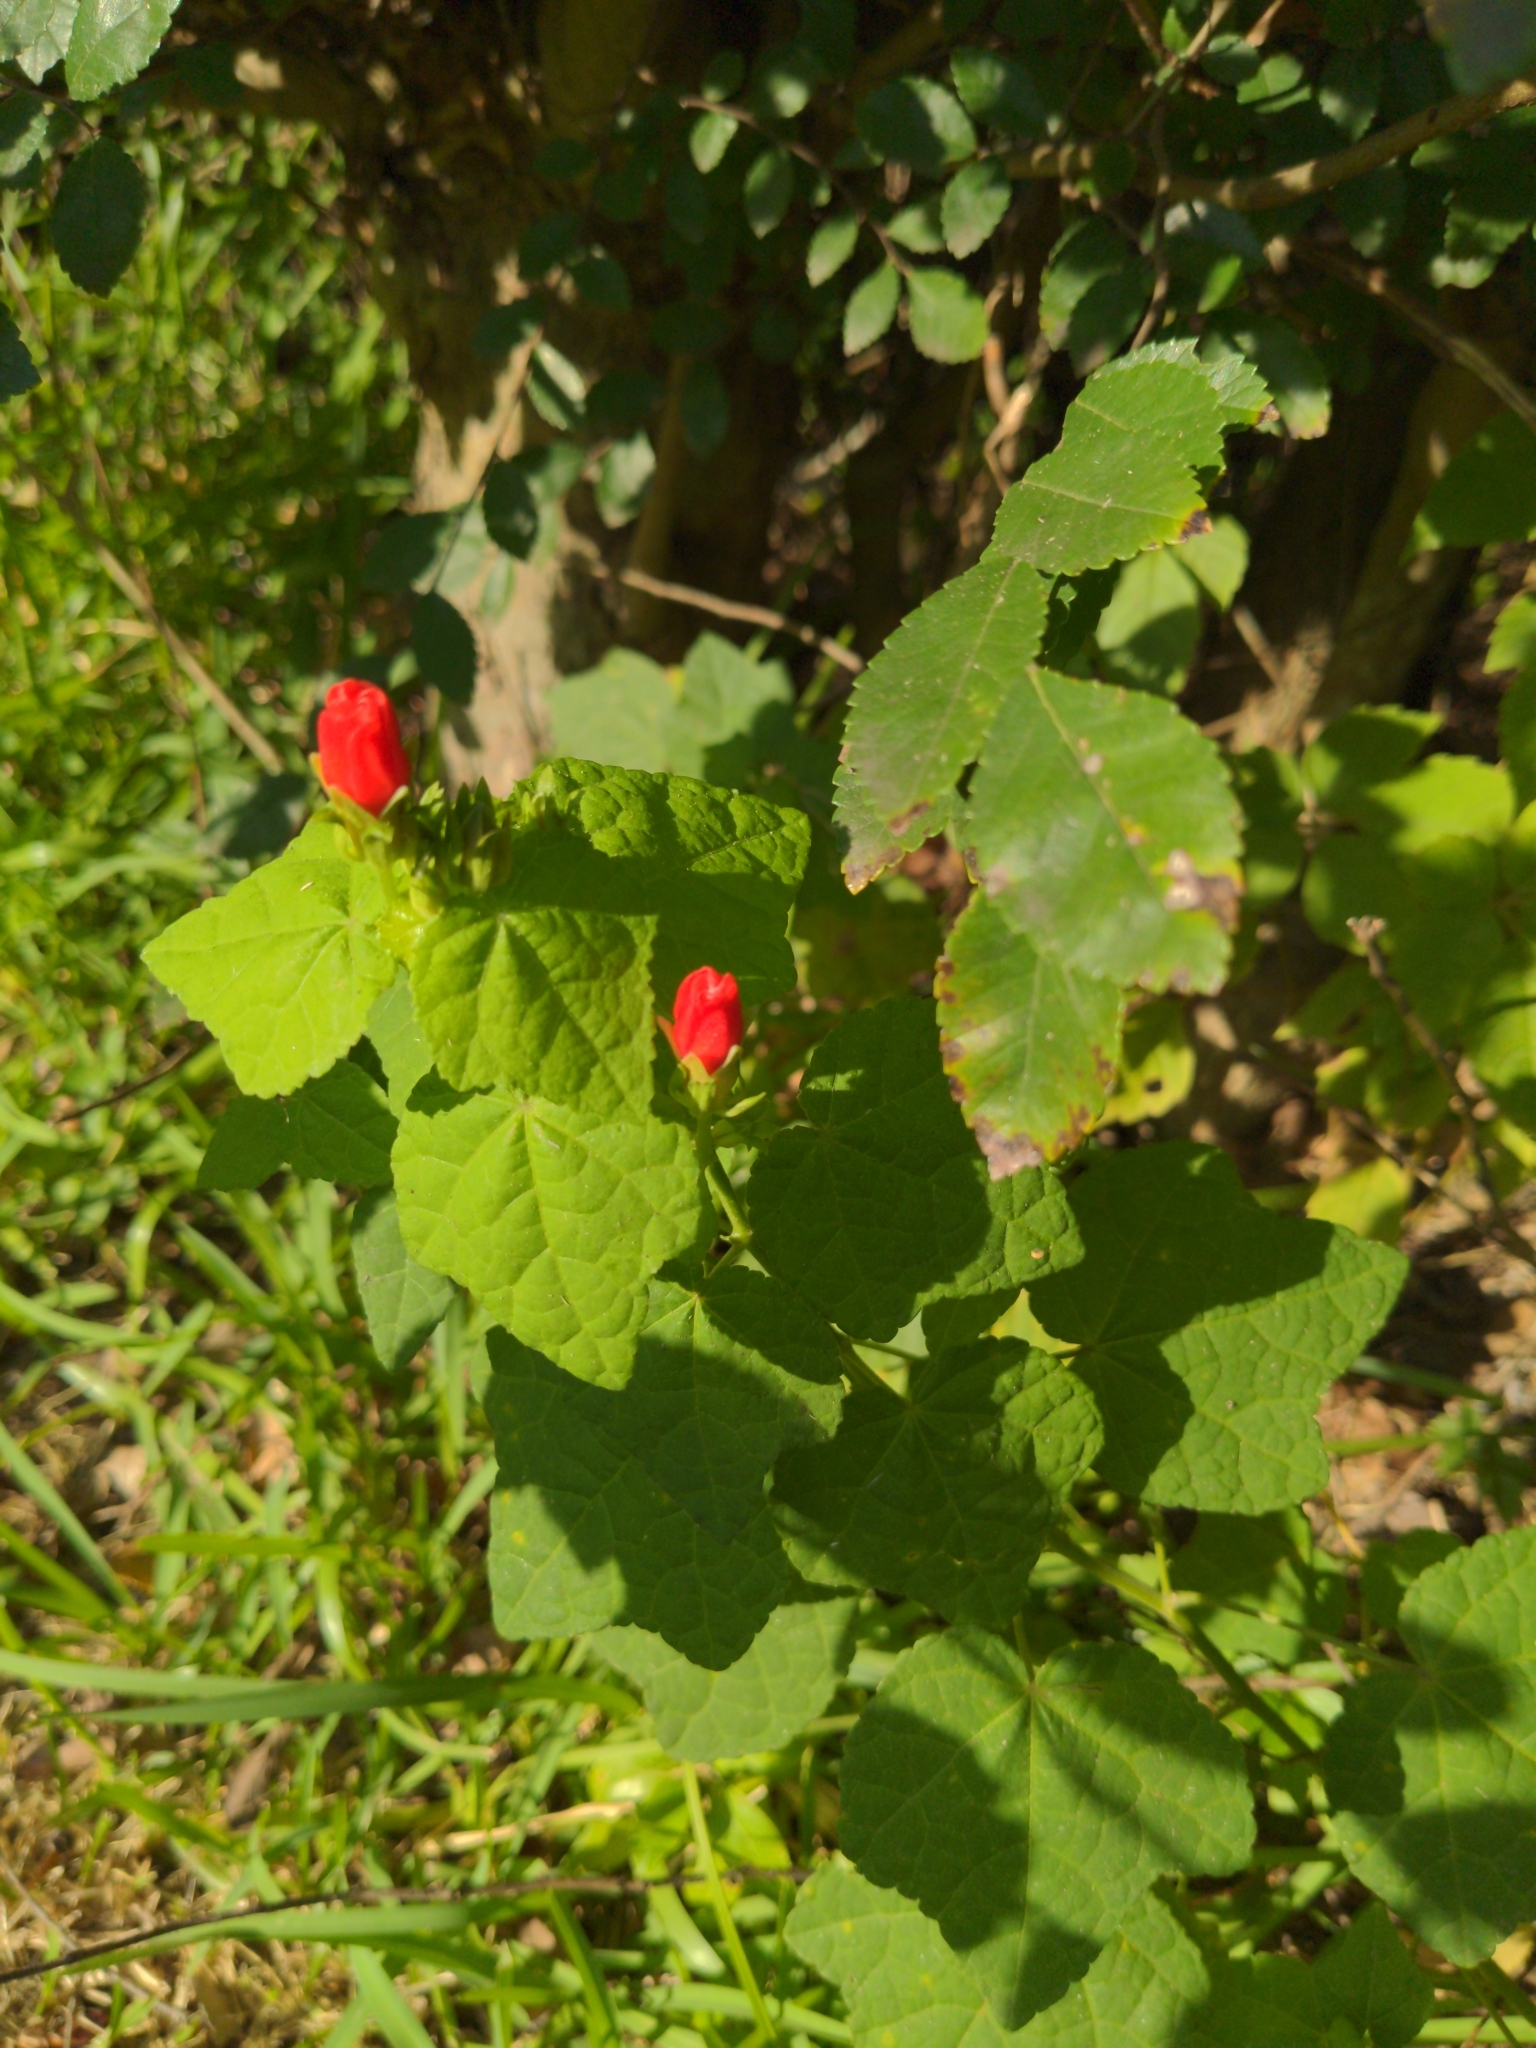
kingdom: Plantae
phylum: Tracheophyta
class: Magnoliopsida
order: Malvales
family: Malvaceae
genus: Malvaviscus
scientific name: Malvaviscus arboreus
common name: Wax mallow
